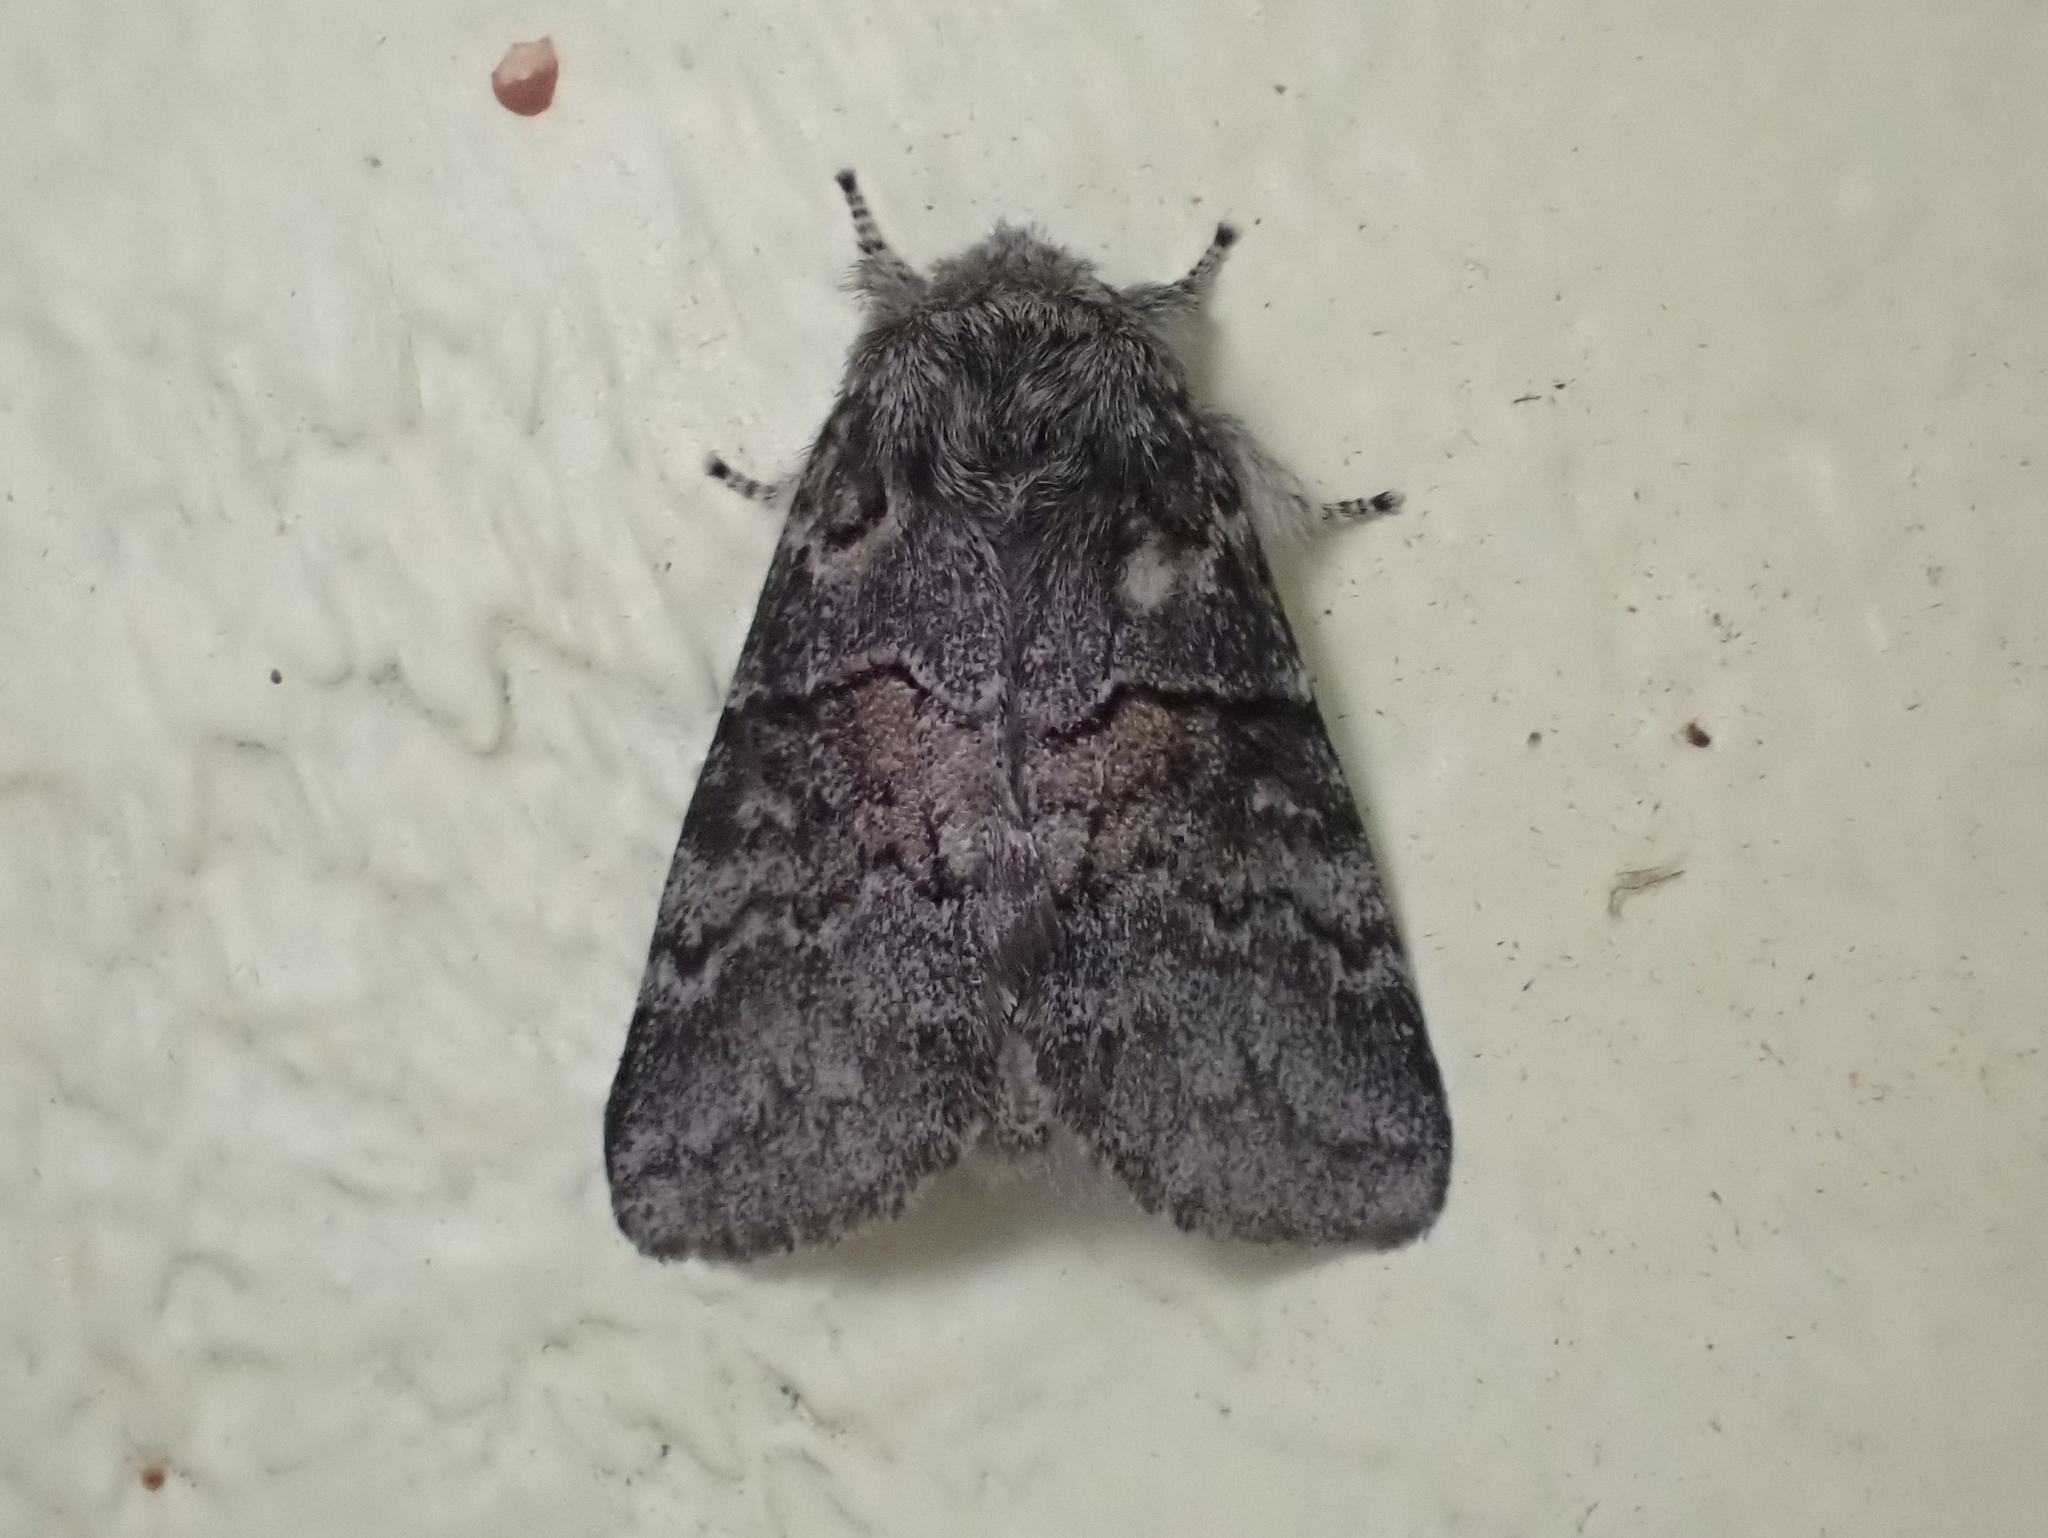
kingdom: Animalia
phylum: Arthropoda
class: Insecta
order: Lepidoptera
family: Notodontidae
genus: Gluphisia
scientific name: Gluphisia septentrionis
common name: Common gluphisia
